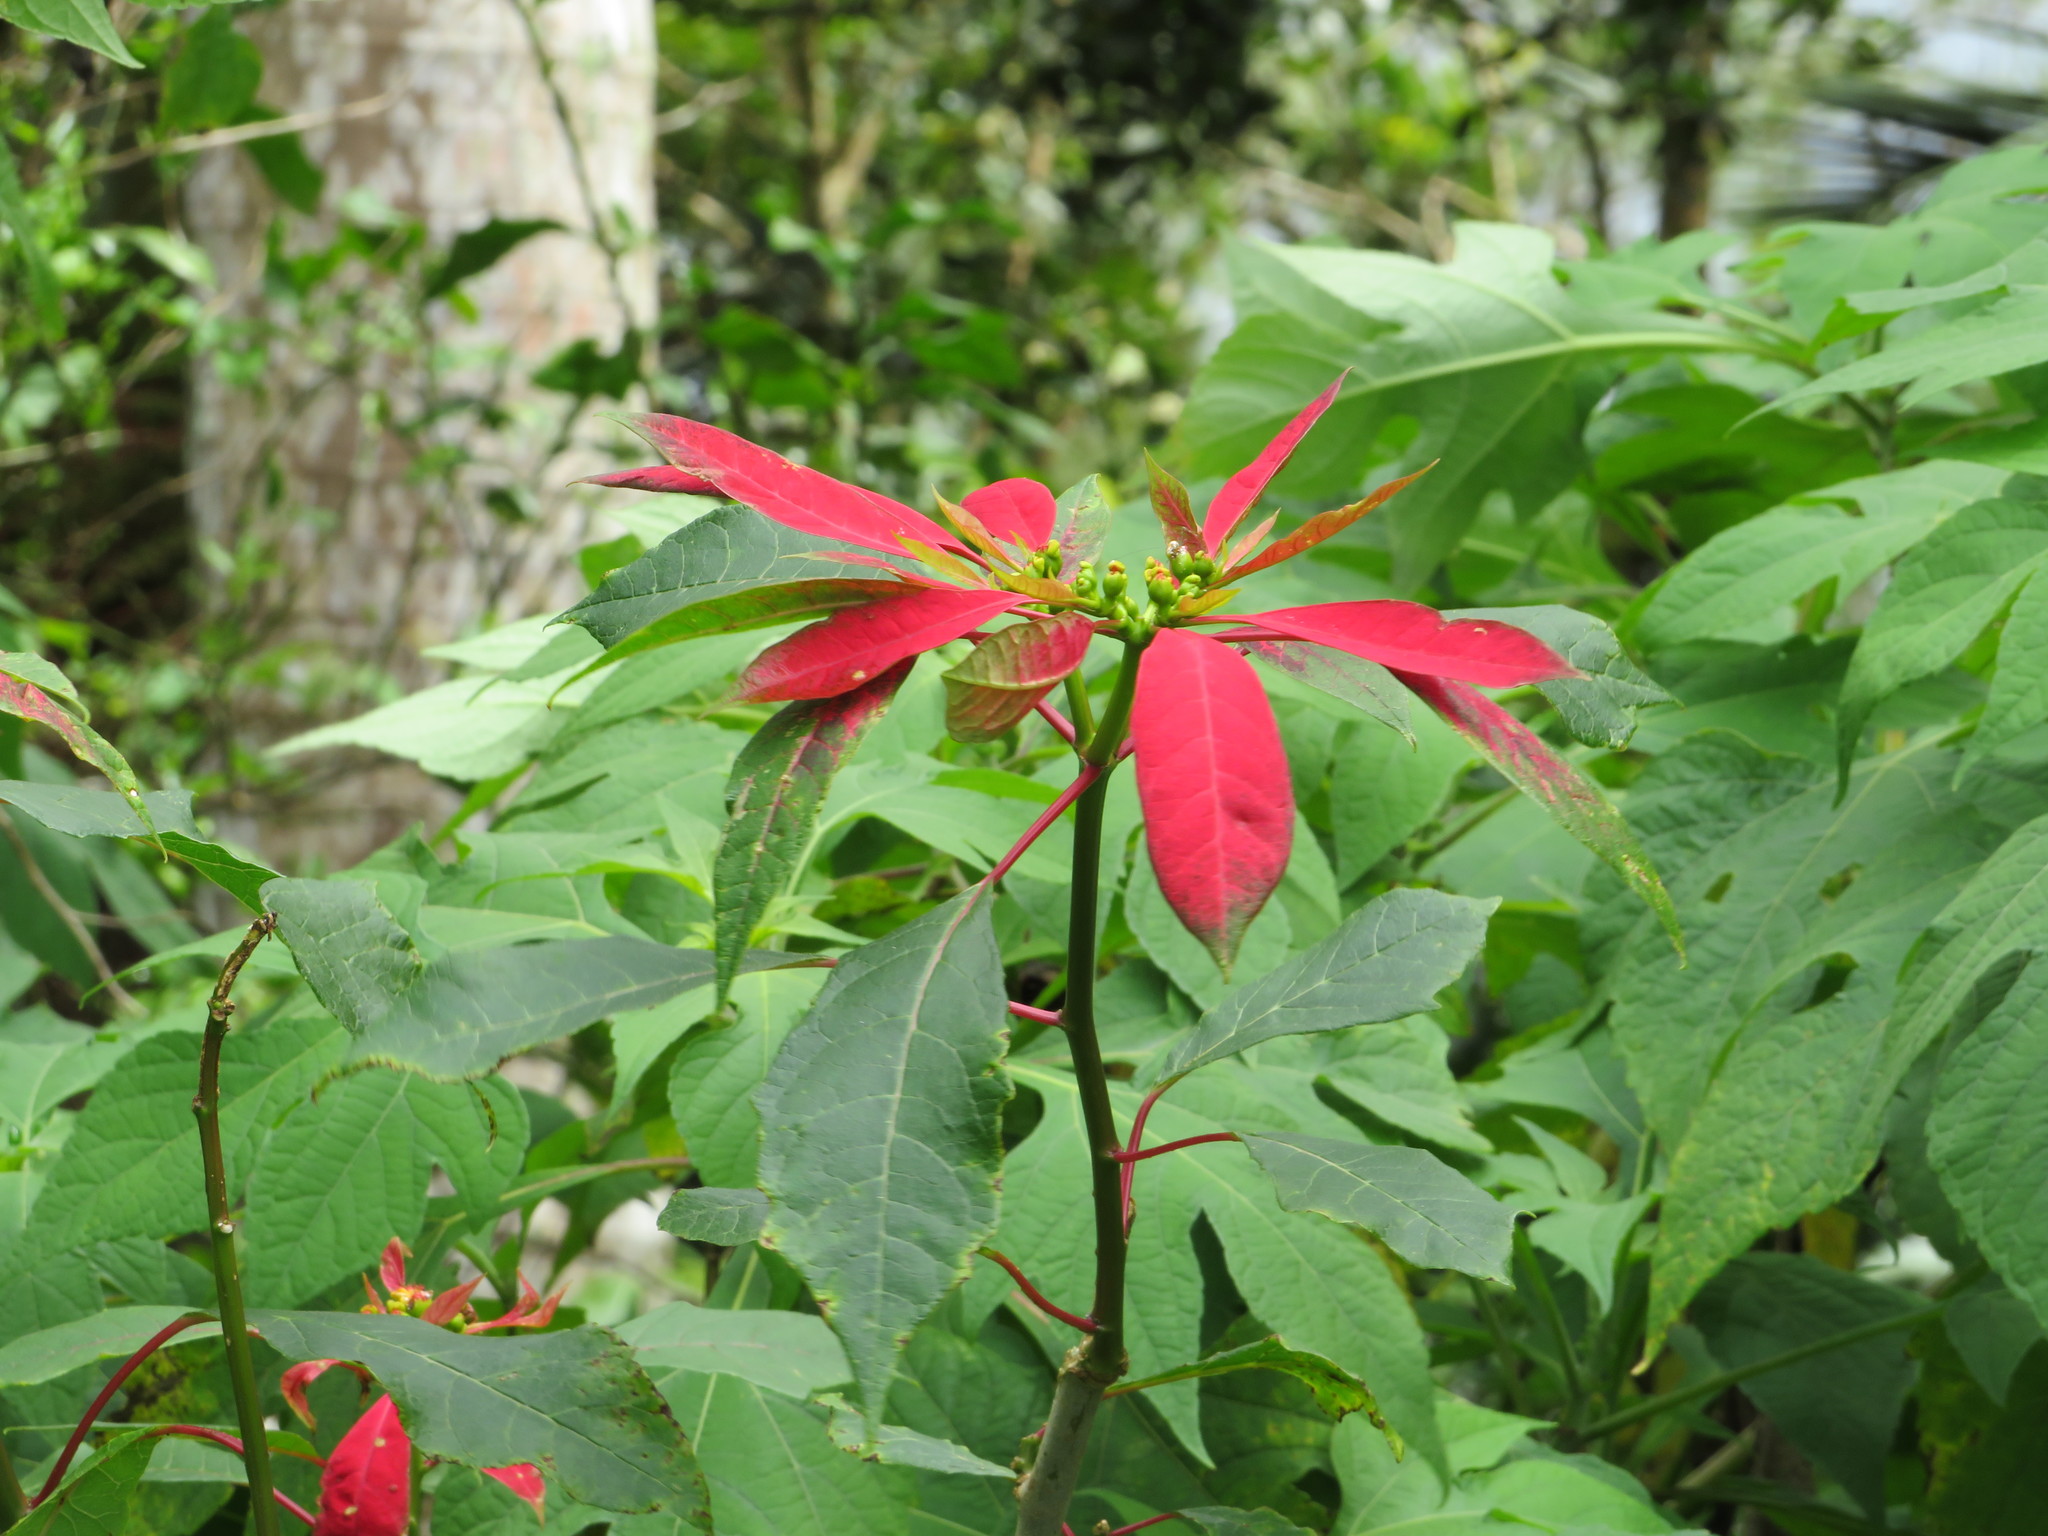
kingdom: Plantae
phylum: Tracheophyta
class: Magnoliopsida
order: Malpighiales
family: Euphorbiaceae
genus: Euphorbia
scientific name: Euphorbia pulcherrima
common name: Christmas-flower
